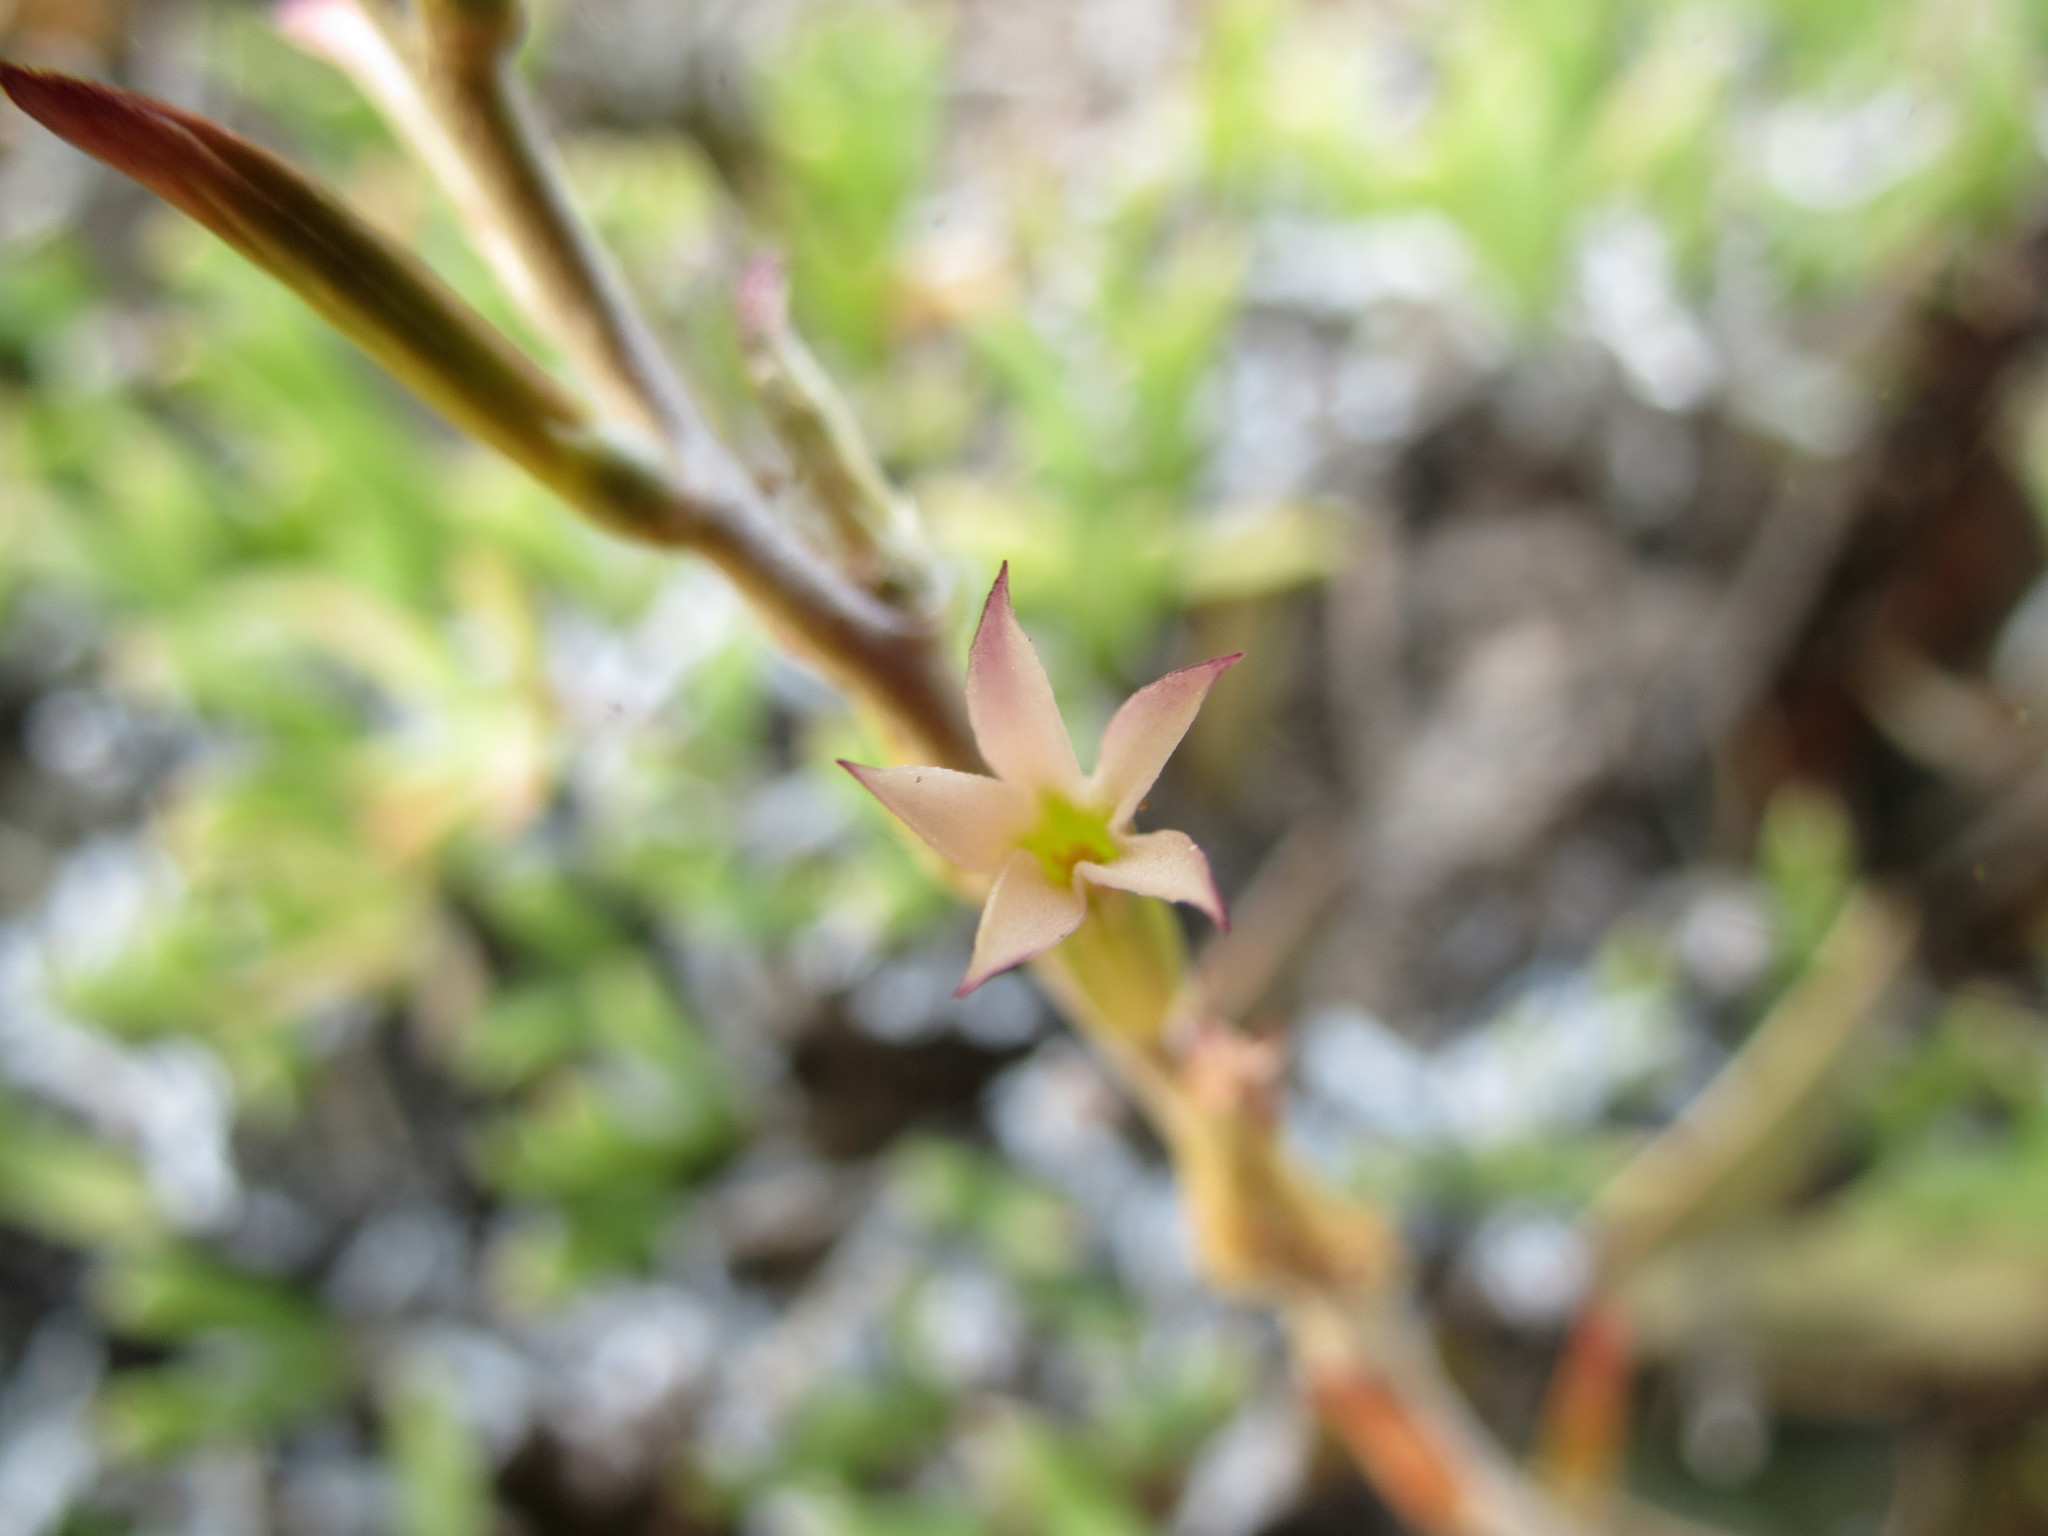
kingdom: Plantae
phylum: Tracheophyta
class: Magnoliopsida
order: Saxifragales
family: Crassulaceae
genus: Adromischus
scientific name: Adromischus maculatus
